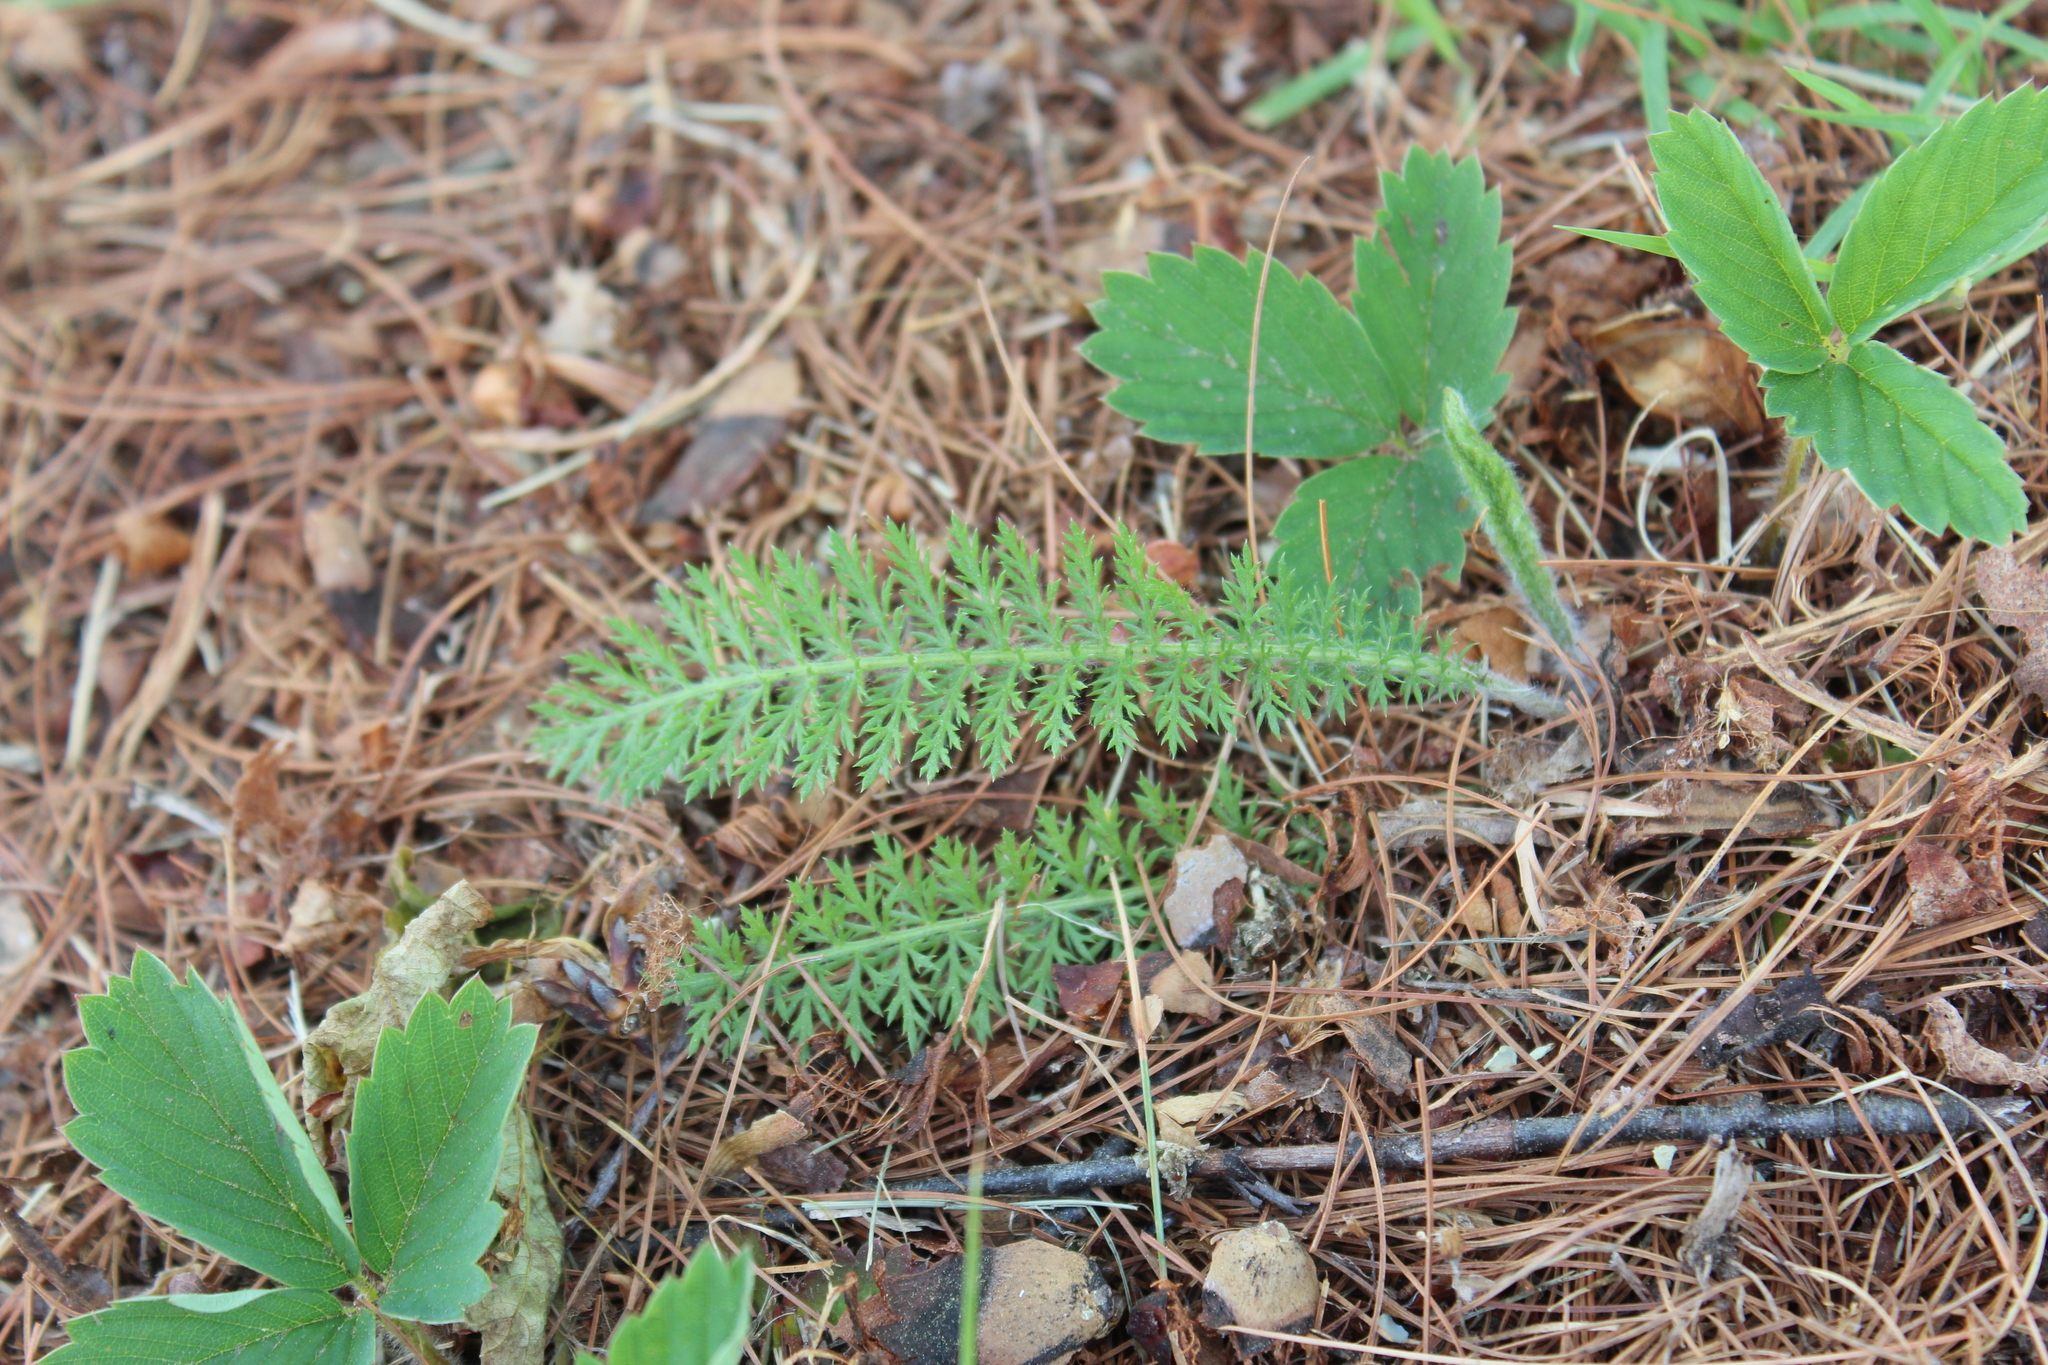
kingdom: Plantae
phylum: Tracheophyta
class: Magnoliopsida
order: Asterales
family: Asteraceae
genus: Achillea
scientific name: Achillea millefolium
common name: Yarrow
